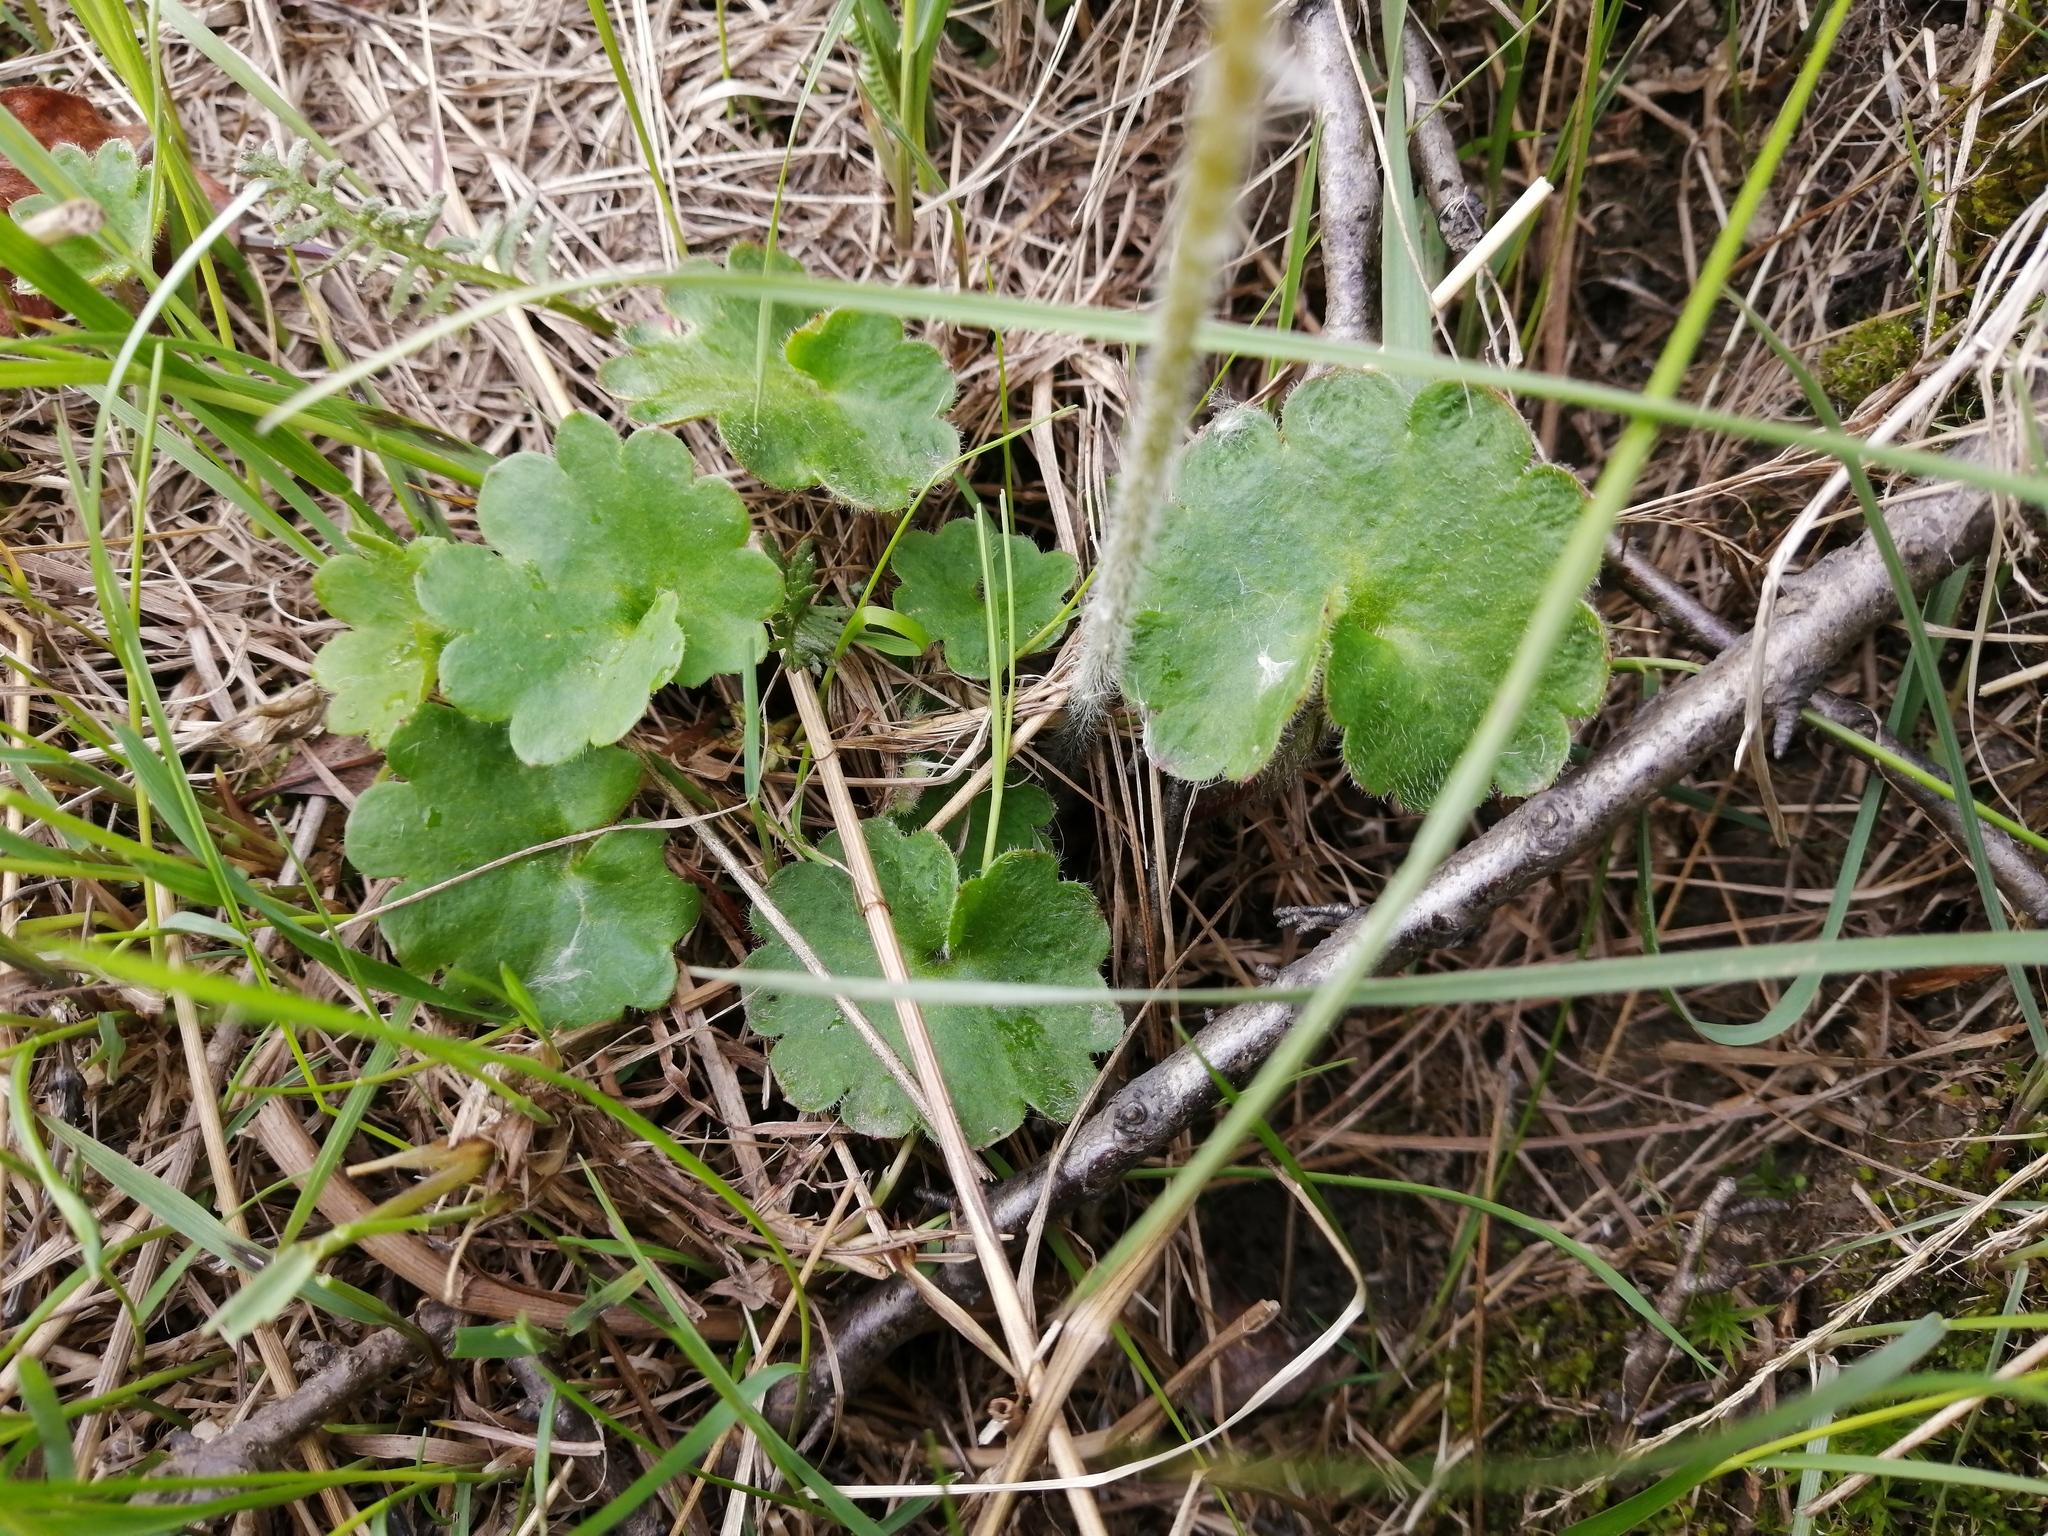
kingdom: Plantae
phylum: Tracheophyta
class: Magnoliopsida
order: Saxifragales
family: Saxifragaceae
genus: Micranthes
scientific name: Micranthes nelsoniana
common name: Nelson's saxifrage
